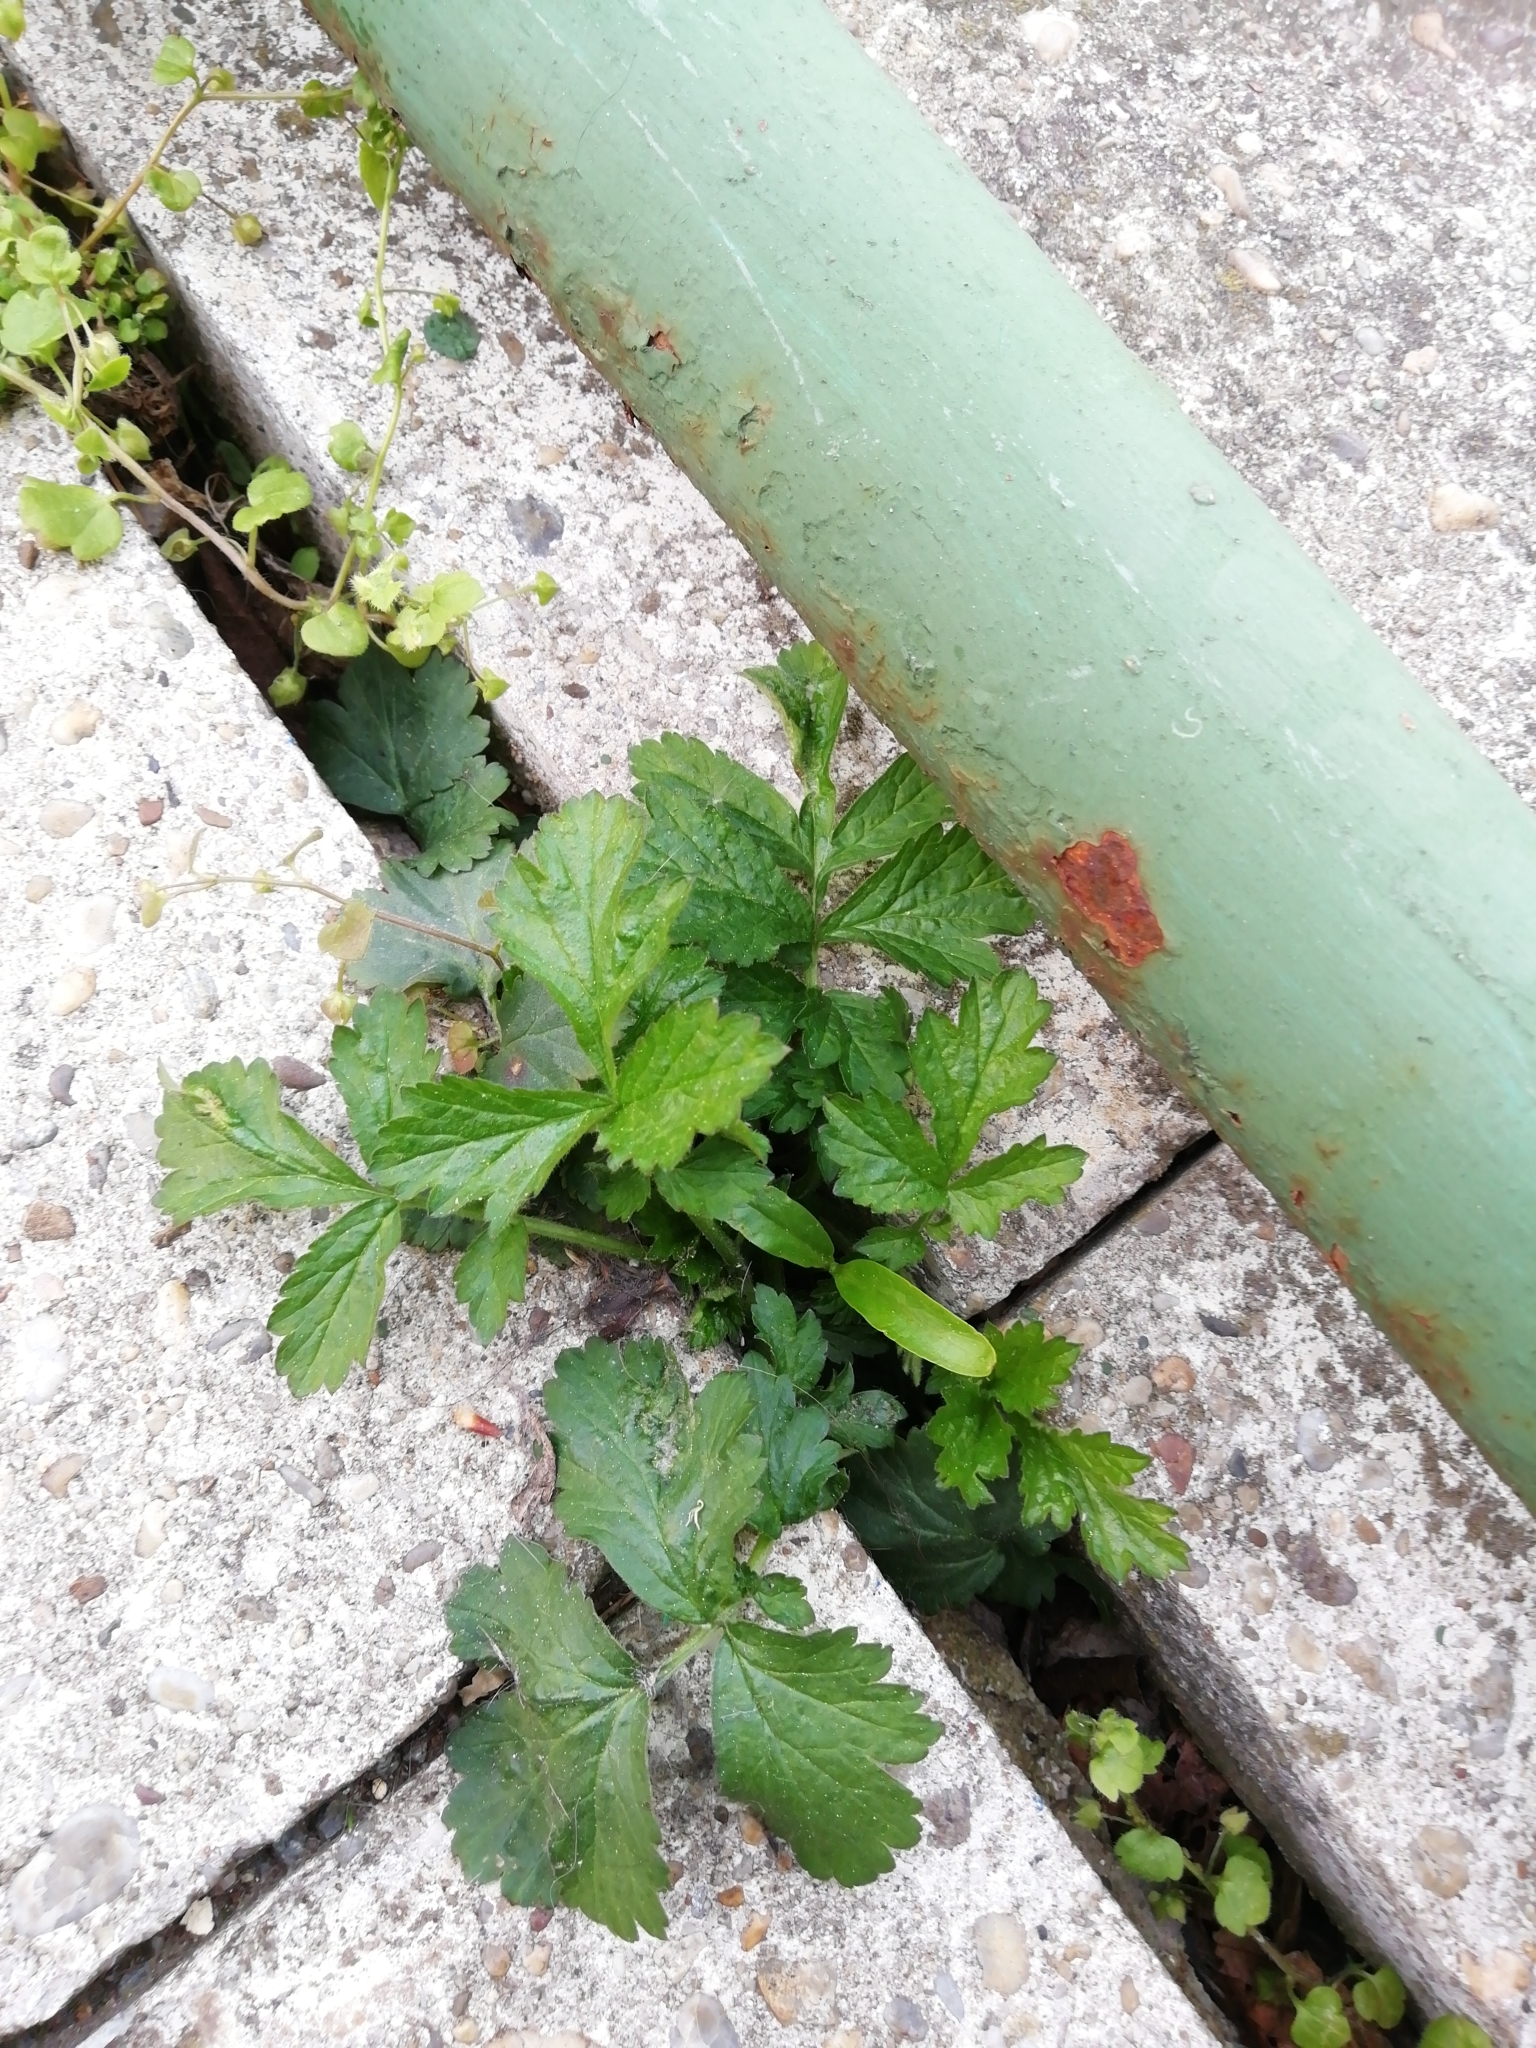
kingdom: Plantae
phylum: Tracheophyta
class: Magnoliopsida
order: Rosales
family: Rosaceae
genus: Geum
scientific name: Geum urbanum
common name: Wood avens
